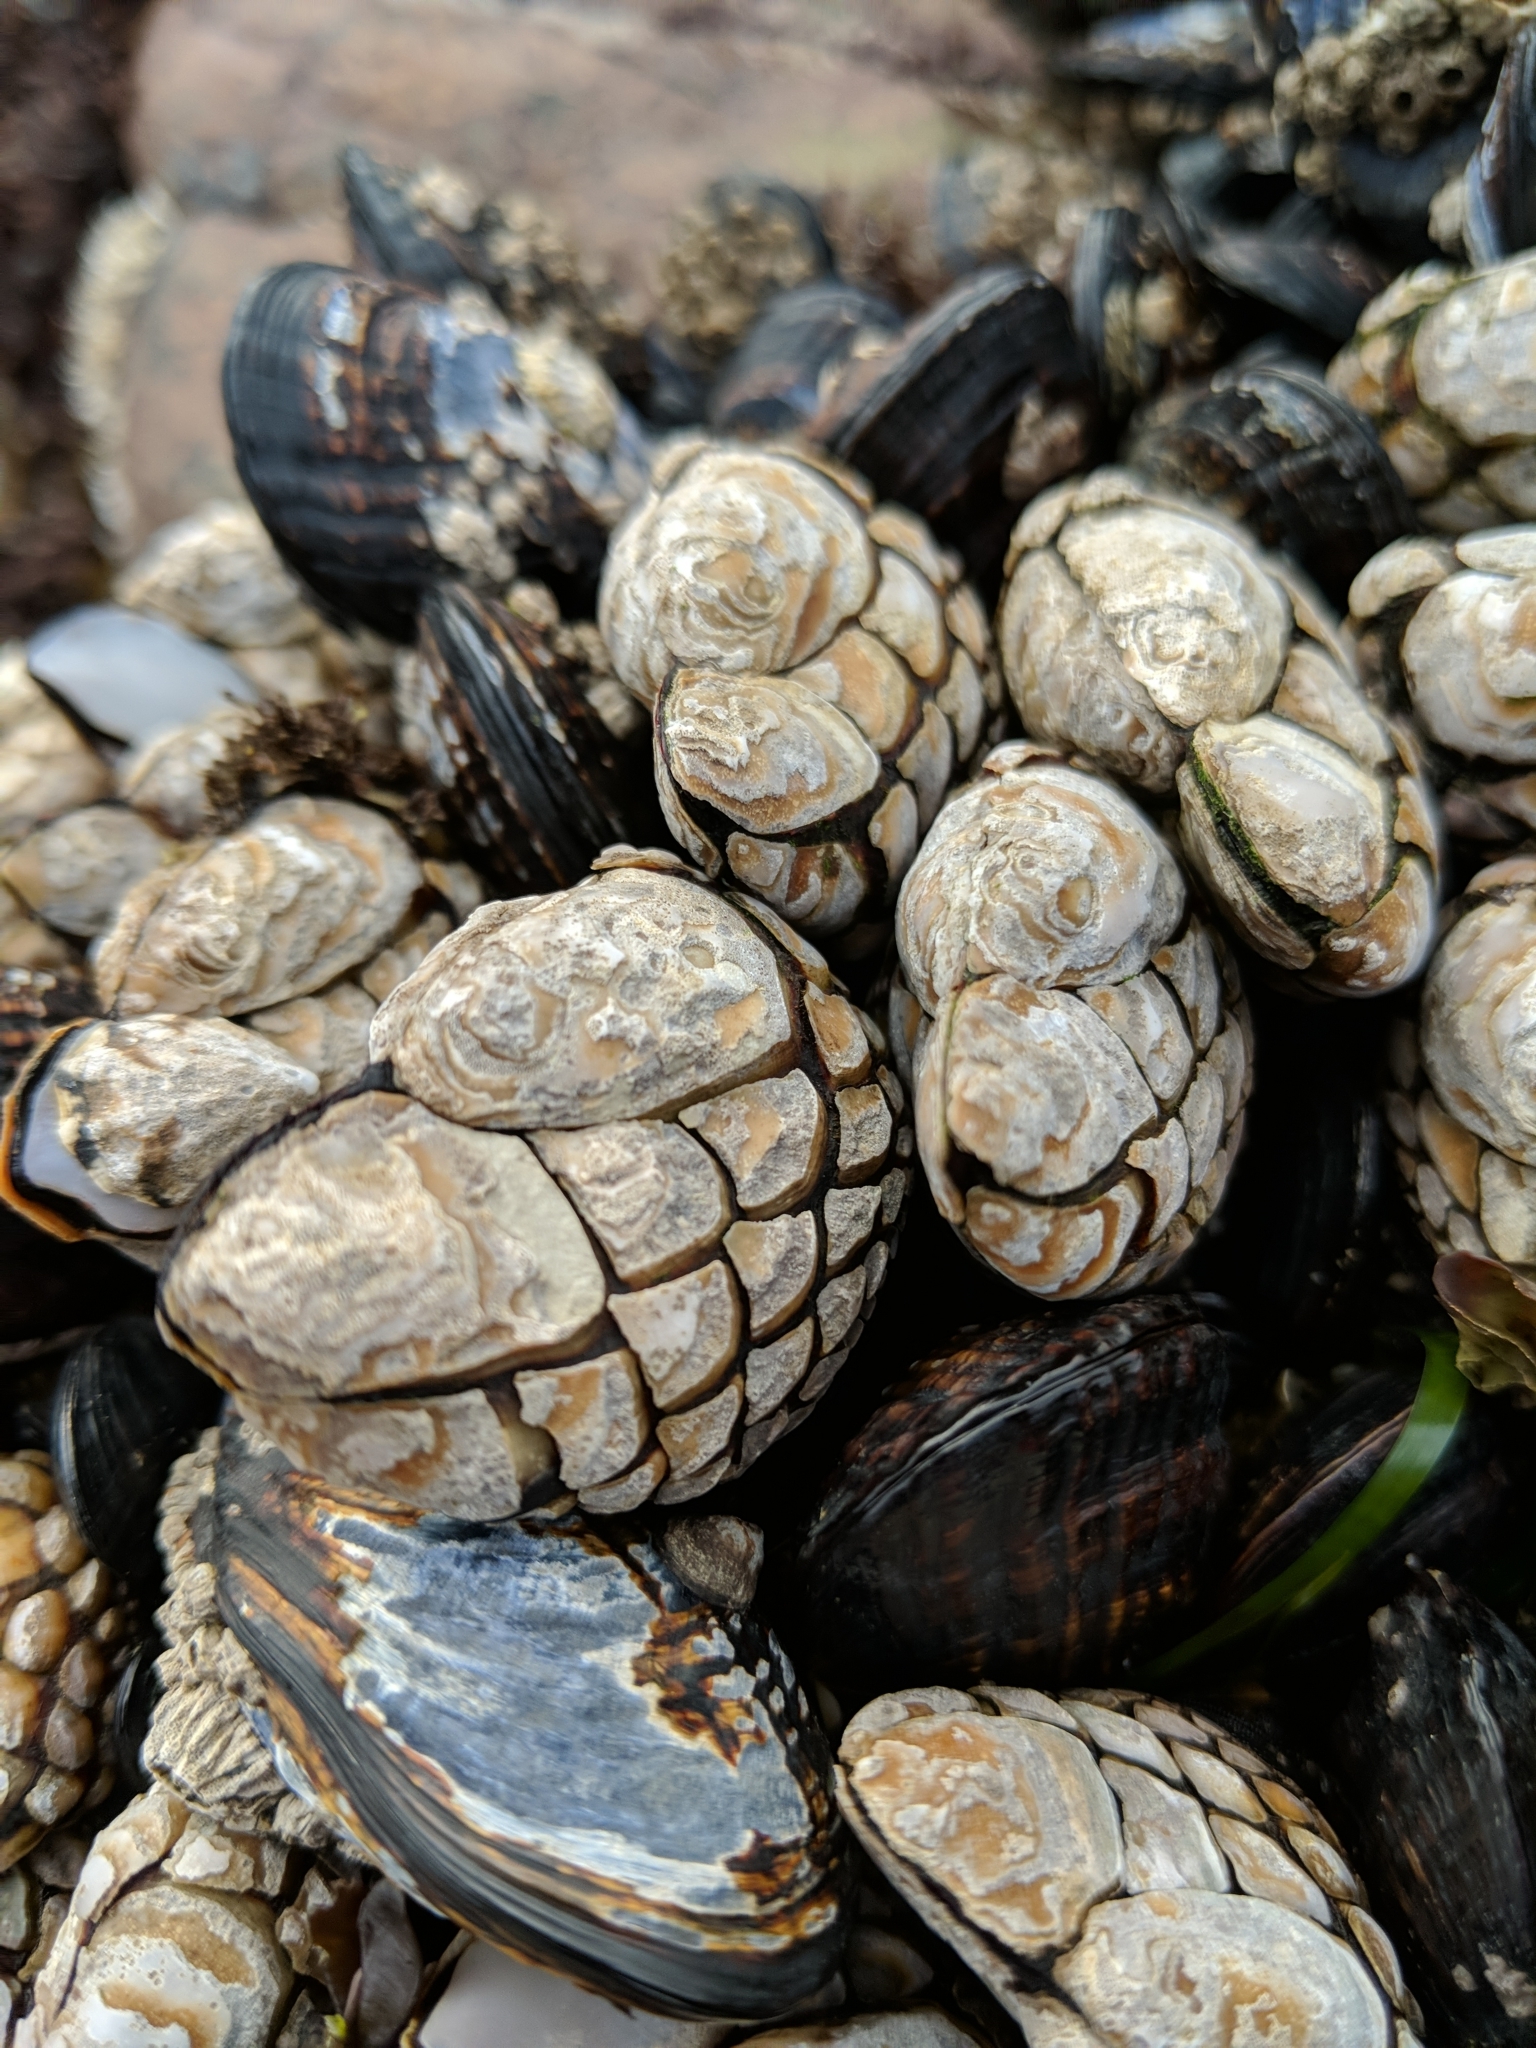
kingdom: Animalia
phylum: Arthropoda
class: Maxillopoda
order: Pedunculata
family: Pollicipedidae
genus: Pollicipes
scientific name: Pollicipes polymerus
